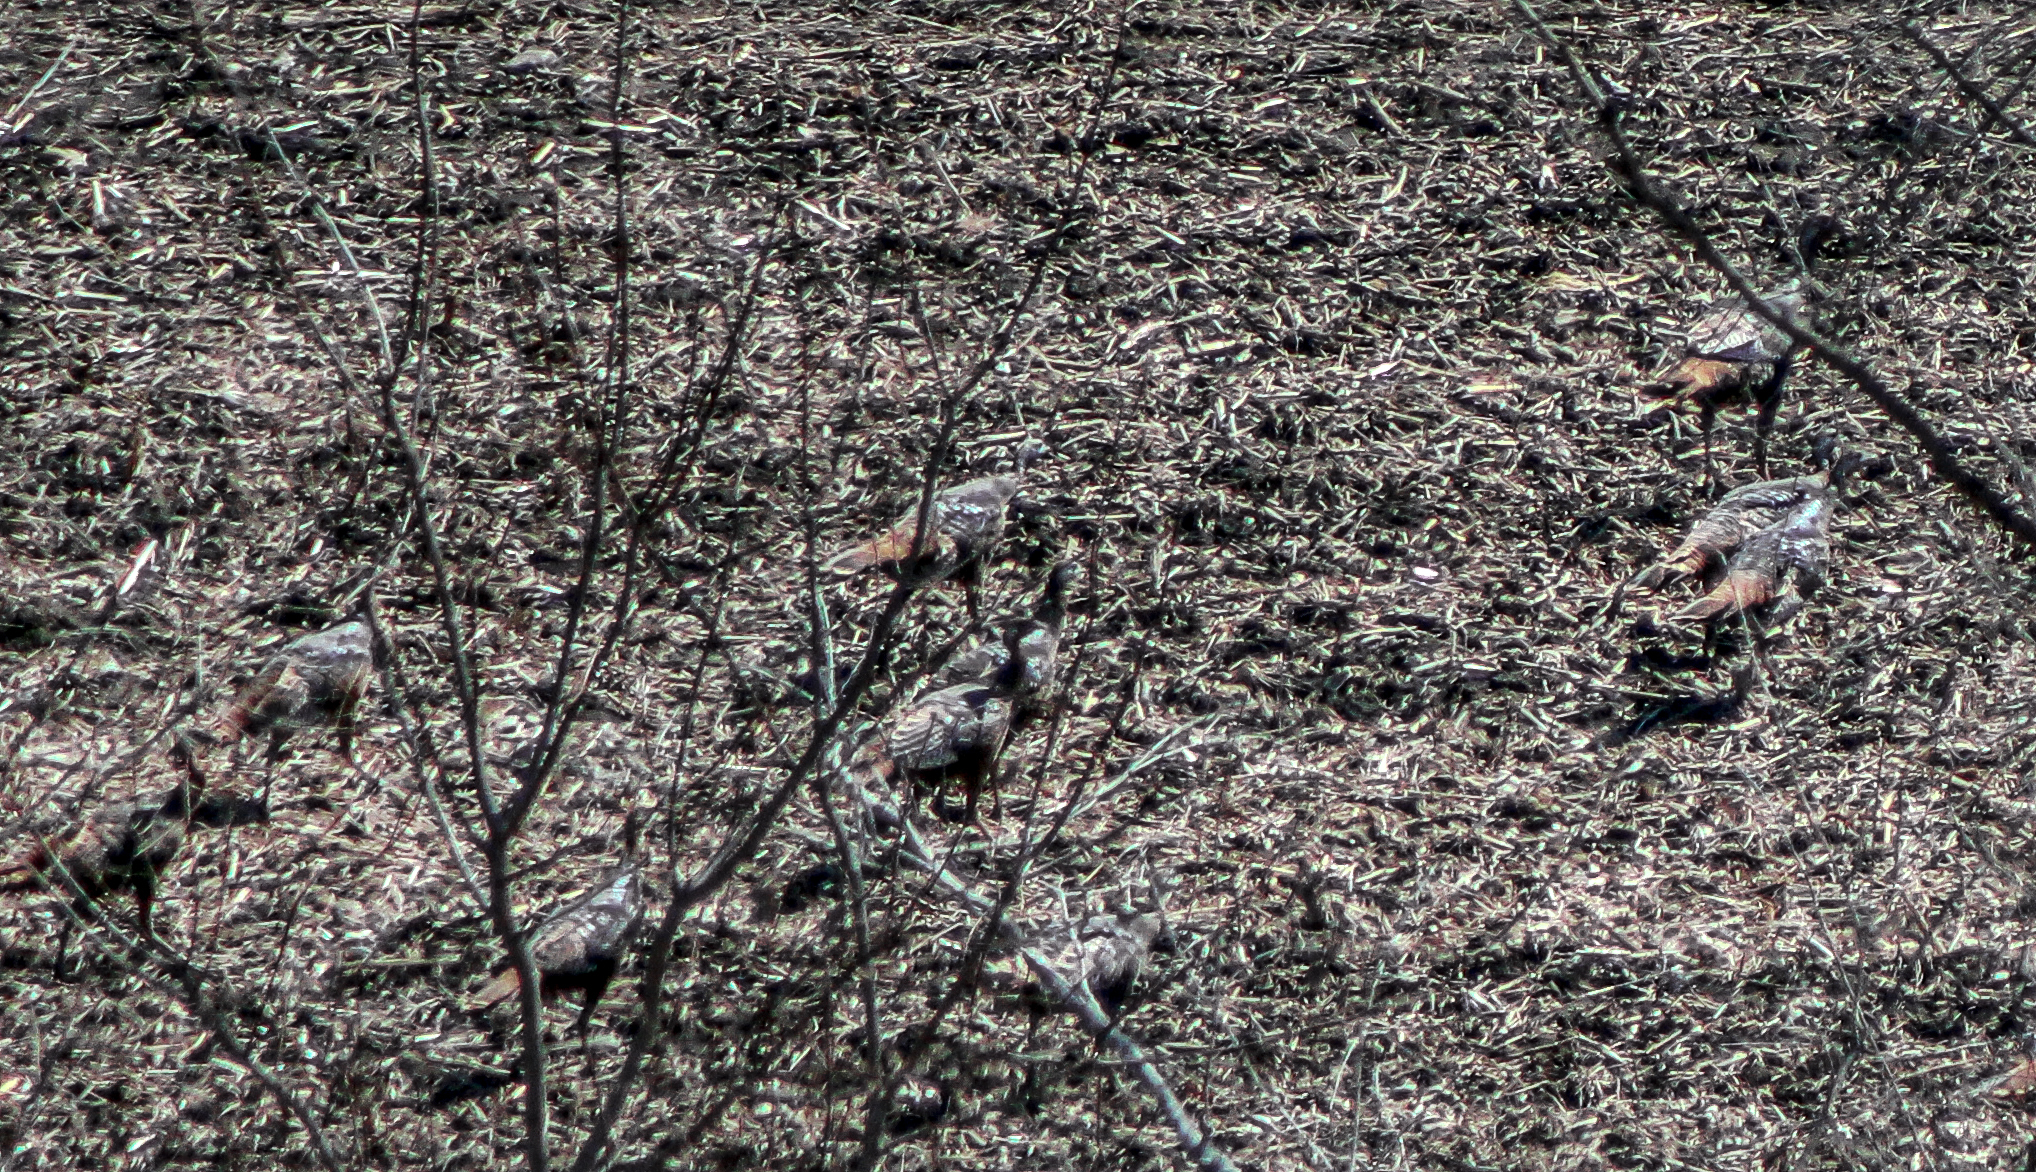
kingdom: Animalia
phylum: Chordata
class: Aves
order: Galliformes
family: Phasianidae
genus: Meleagris
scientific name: Meleagris gallopavo
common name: Wild turkey
